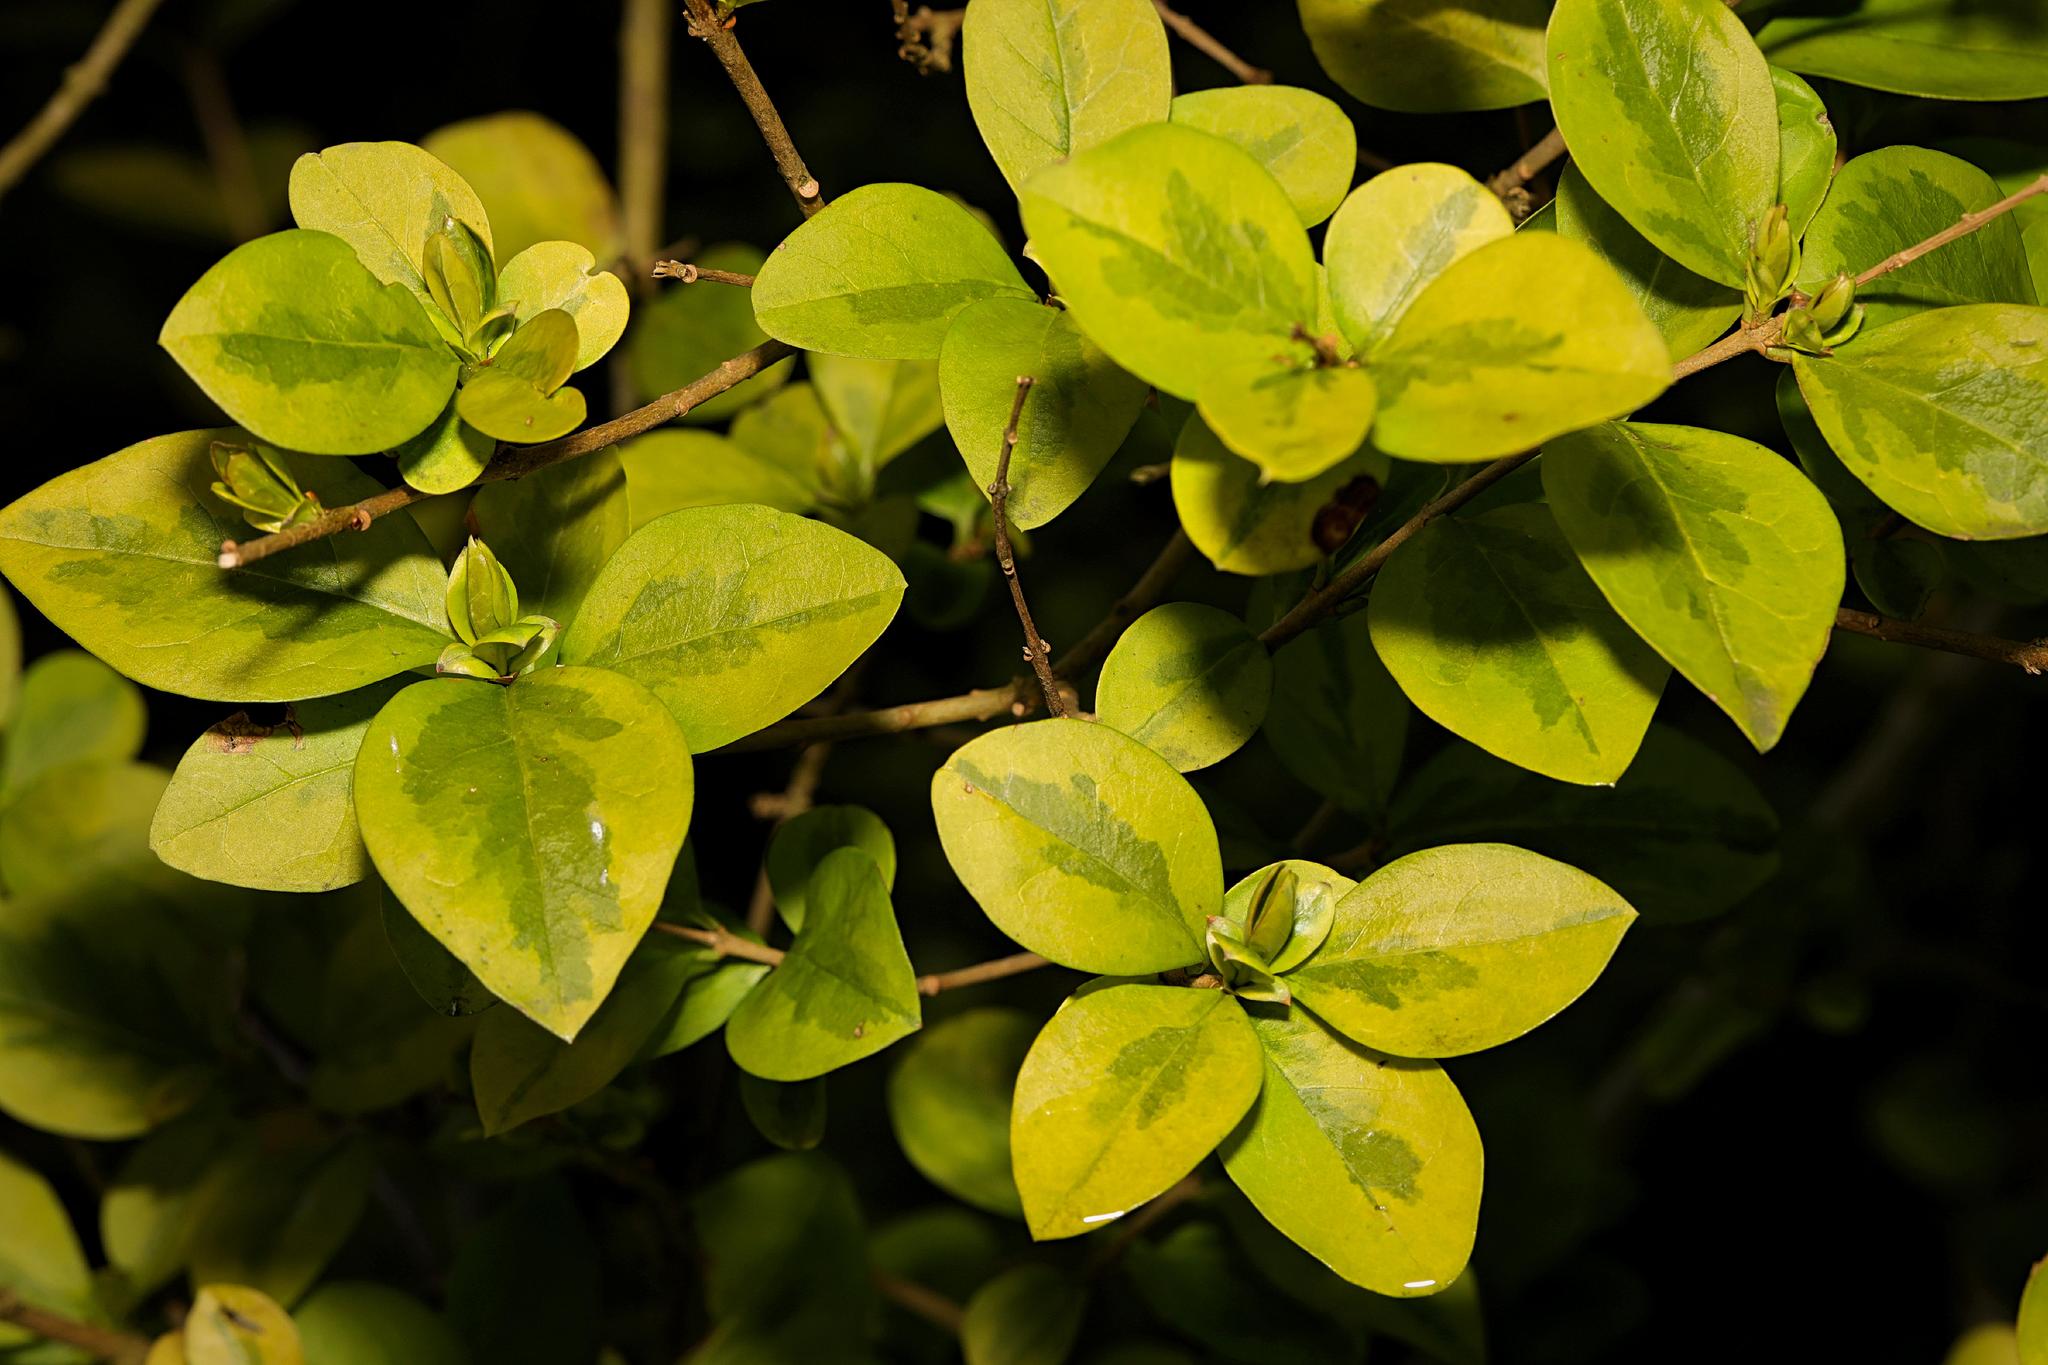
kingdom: Plantae
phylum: Tracheophyta
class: Magnoliopsida
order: Lamiales
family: Oleaceae
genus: Ligustrum
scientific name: Ligustrum ovalifolium
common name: California privet
